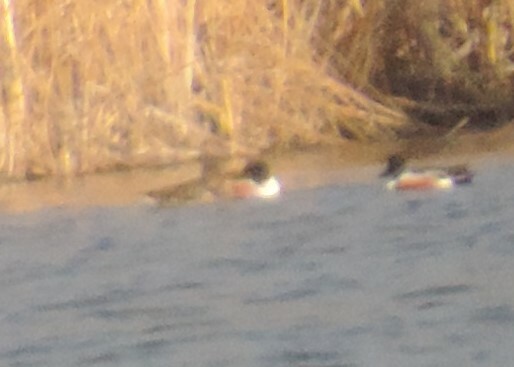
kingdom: Animalia
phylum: Chordata
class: Aves
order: Anseriformes
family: Anatidae
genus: Spatula
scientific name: Spatula clypeata
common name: Northern shoveler
